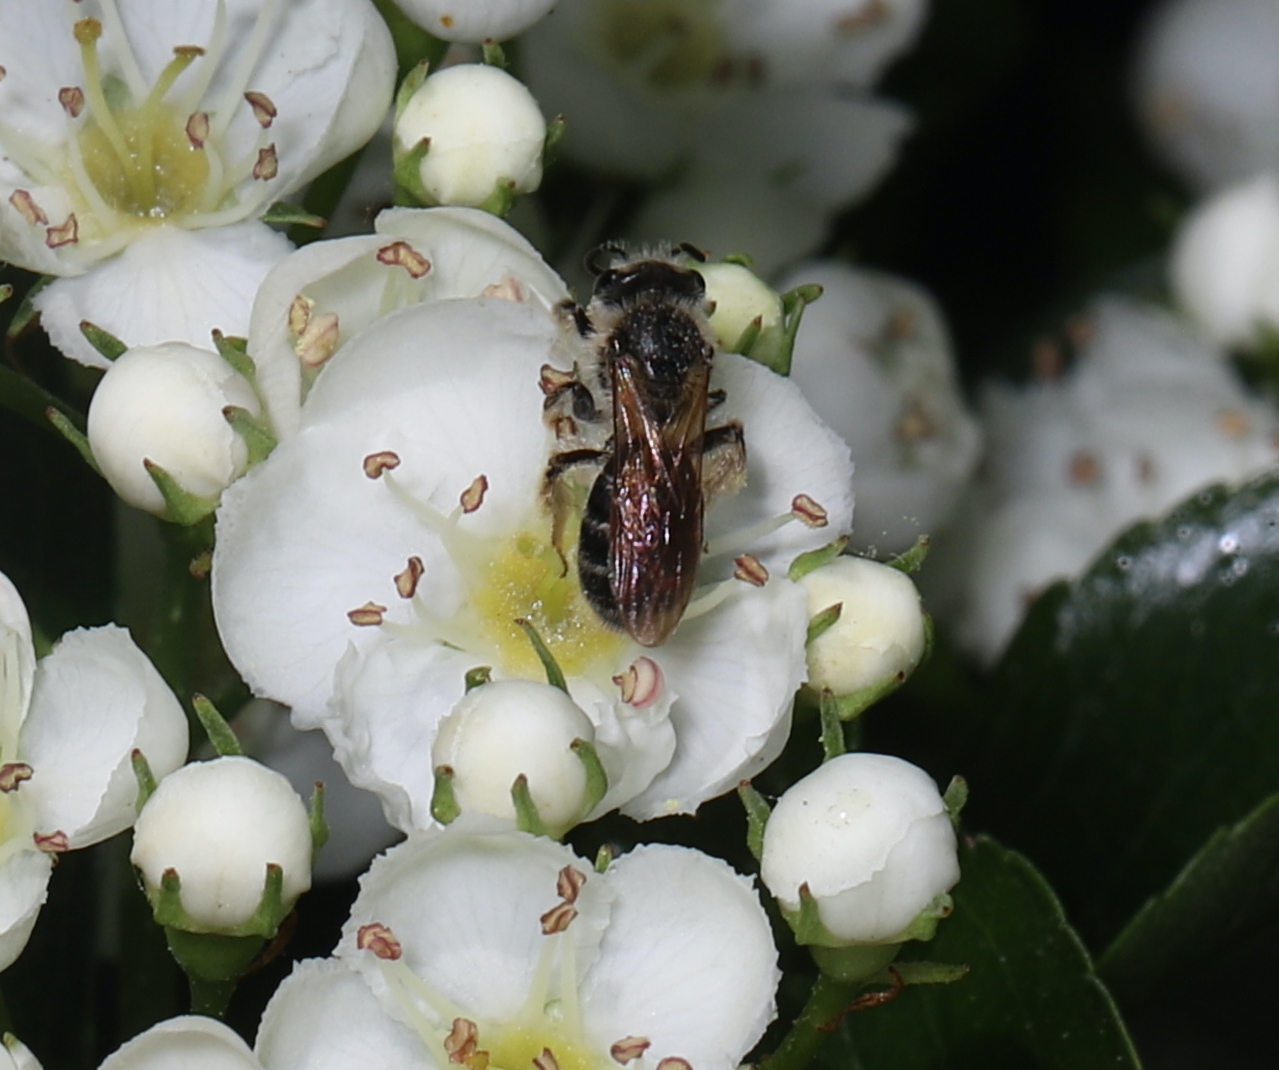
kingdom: Animalia
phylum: Arthropoda
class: Insecta
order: Hymenoptera
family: Andrenidae
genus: Andrena
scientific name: Andrena
